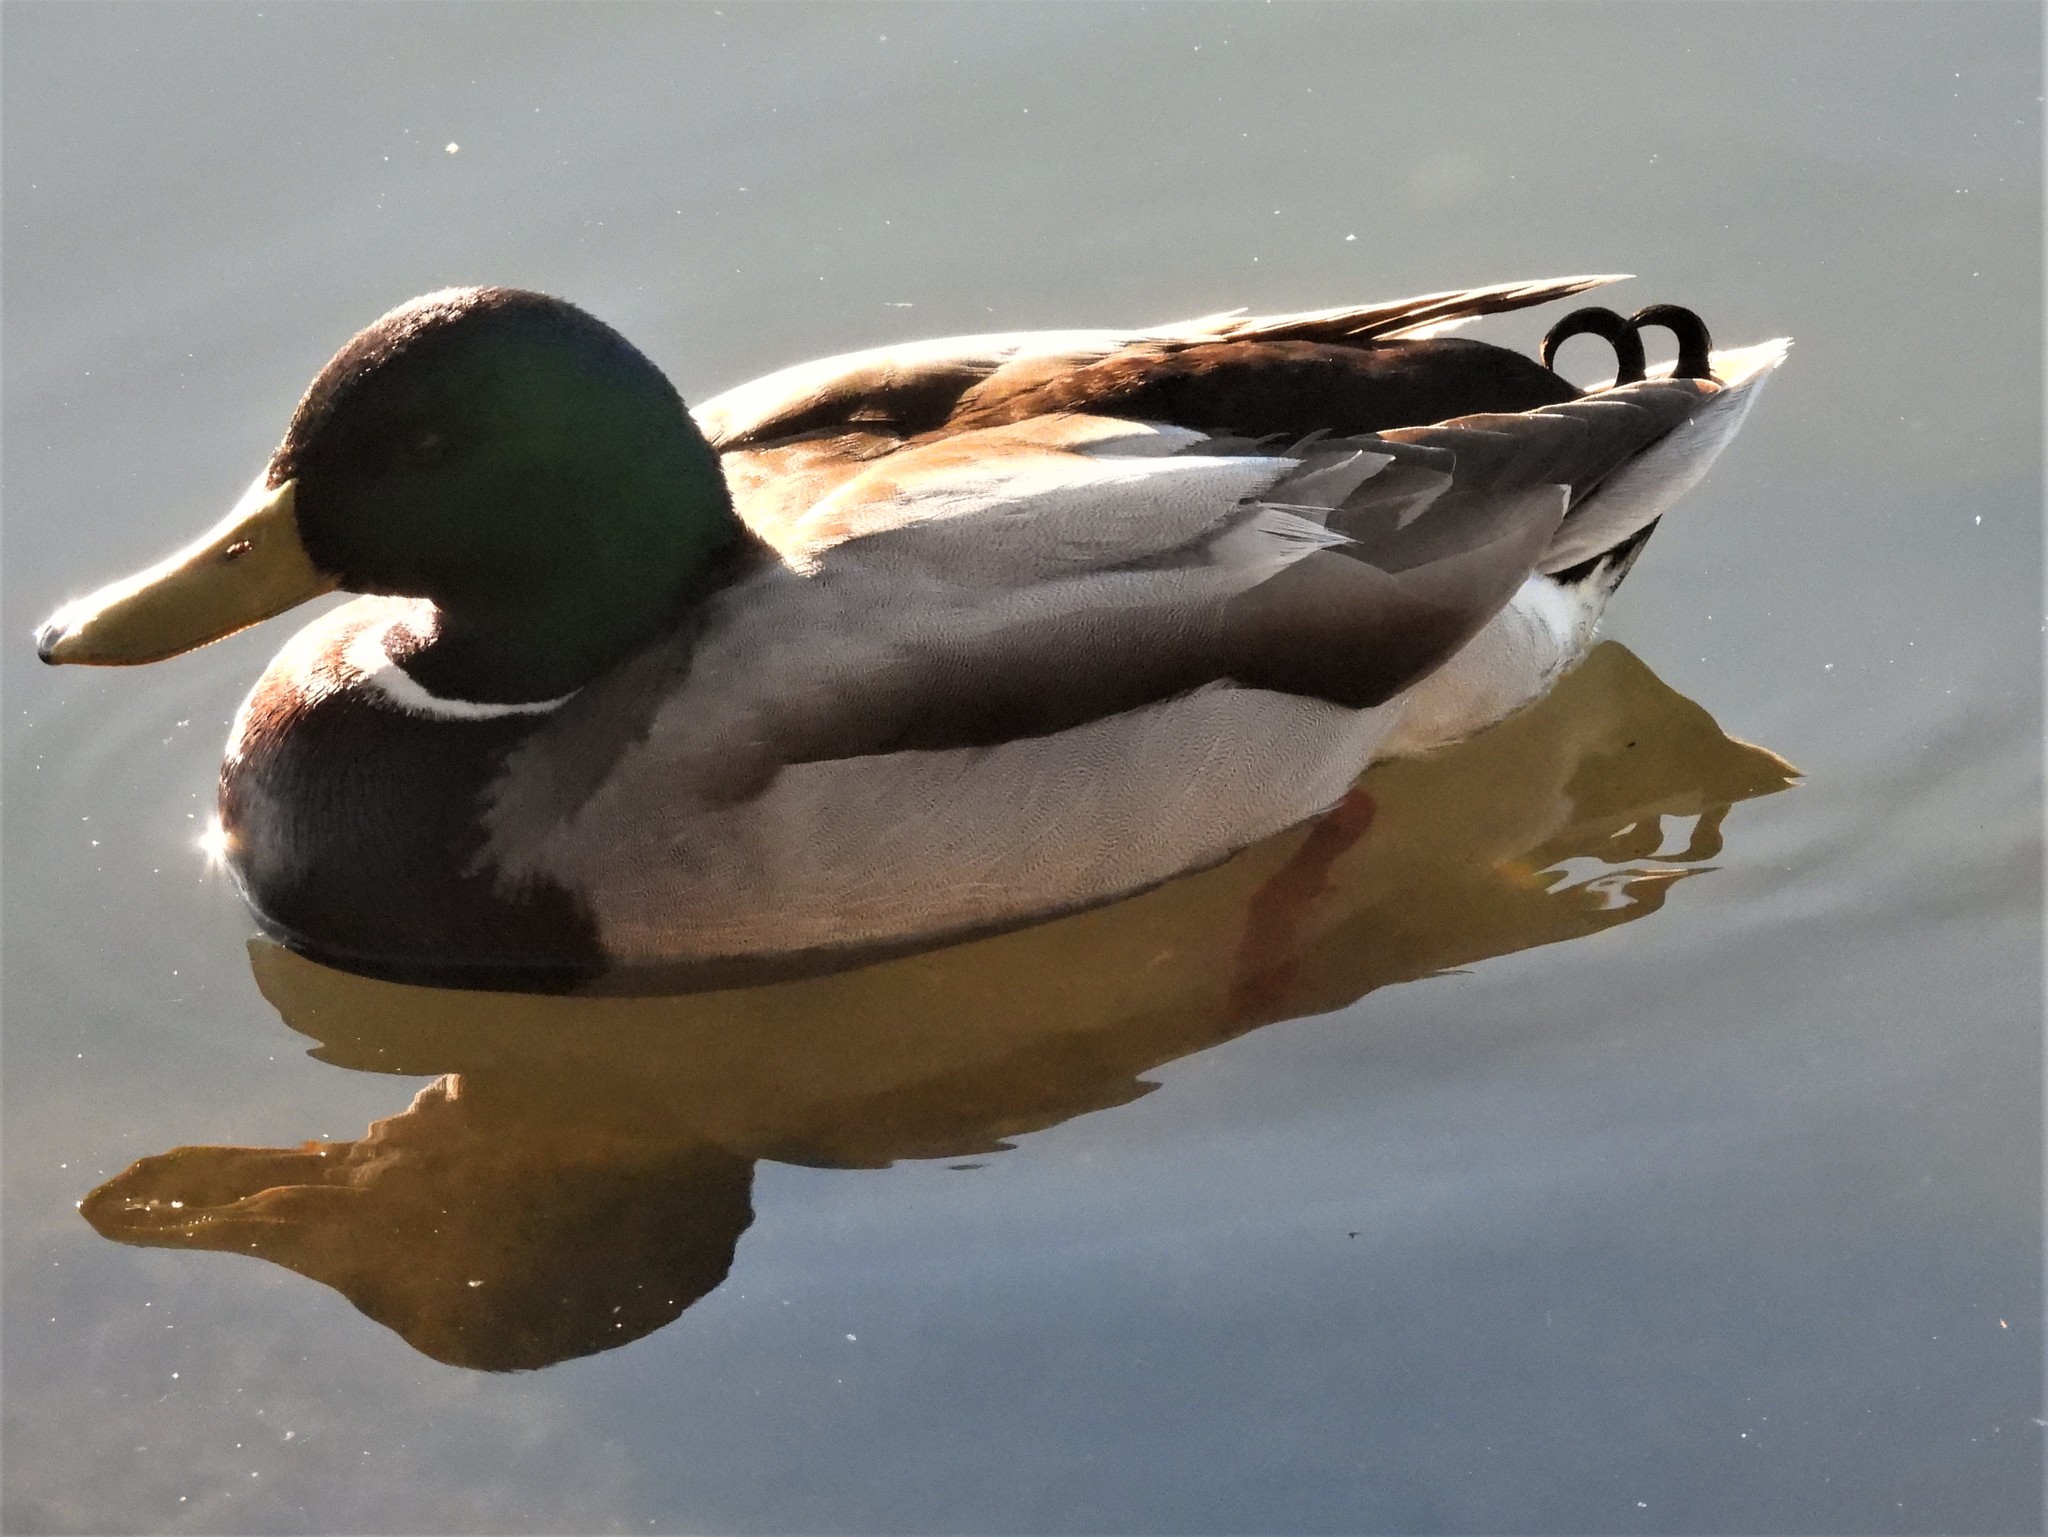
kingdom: Animalia
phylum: Chordata
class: Aves
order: Anseriformes
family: Anatidae
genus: Anas
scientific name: Anas platyrhynchos
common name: Mallard
